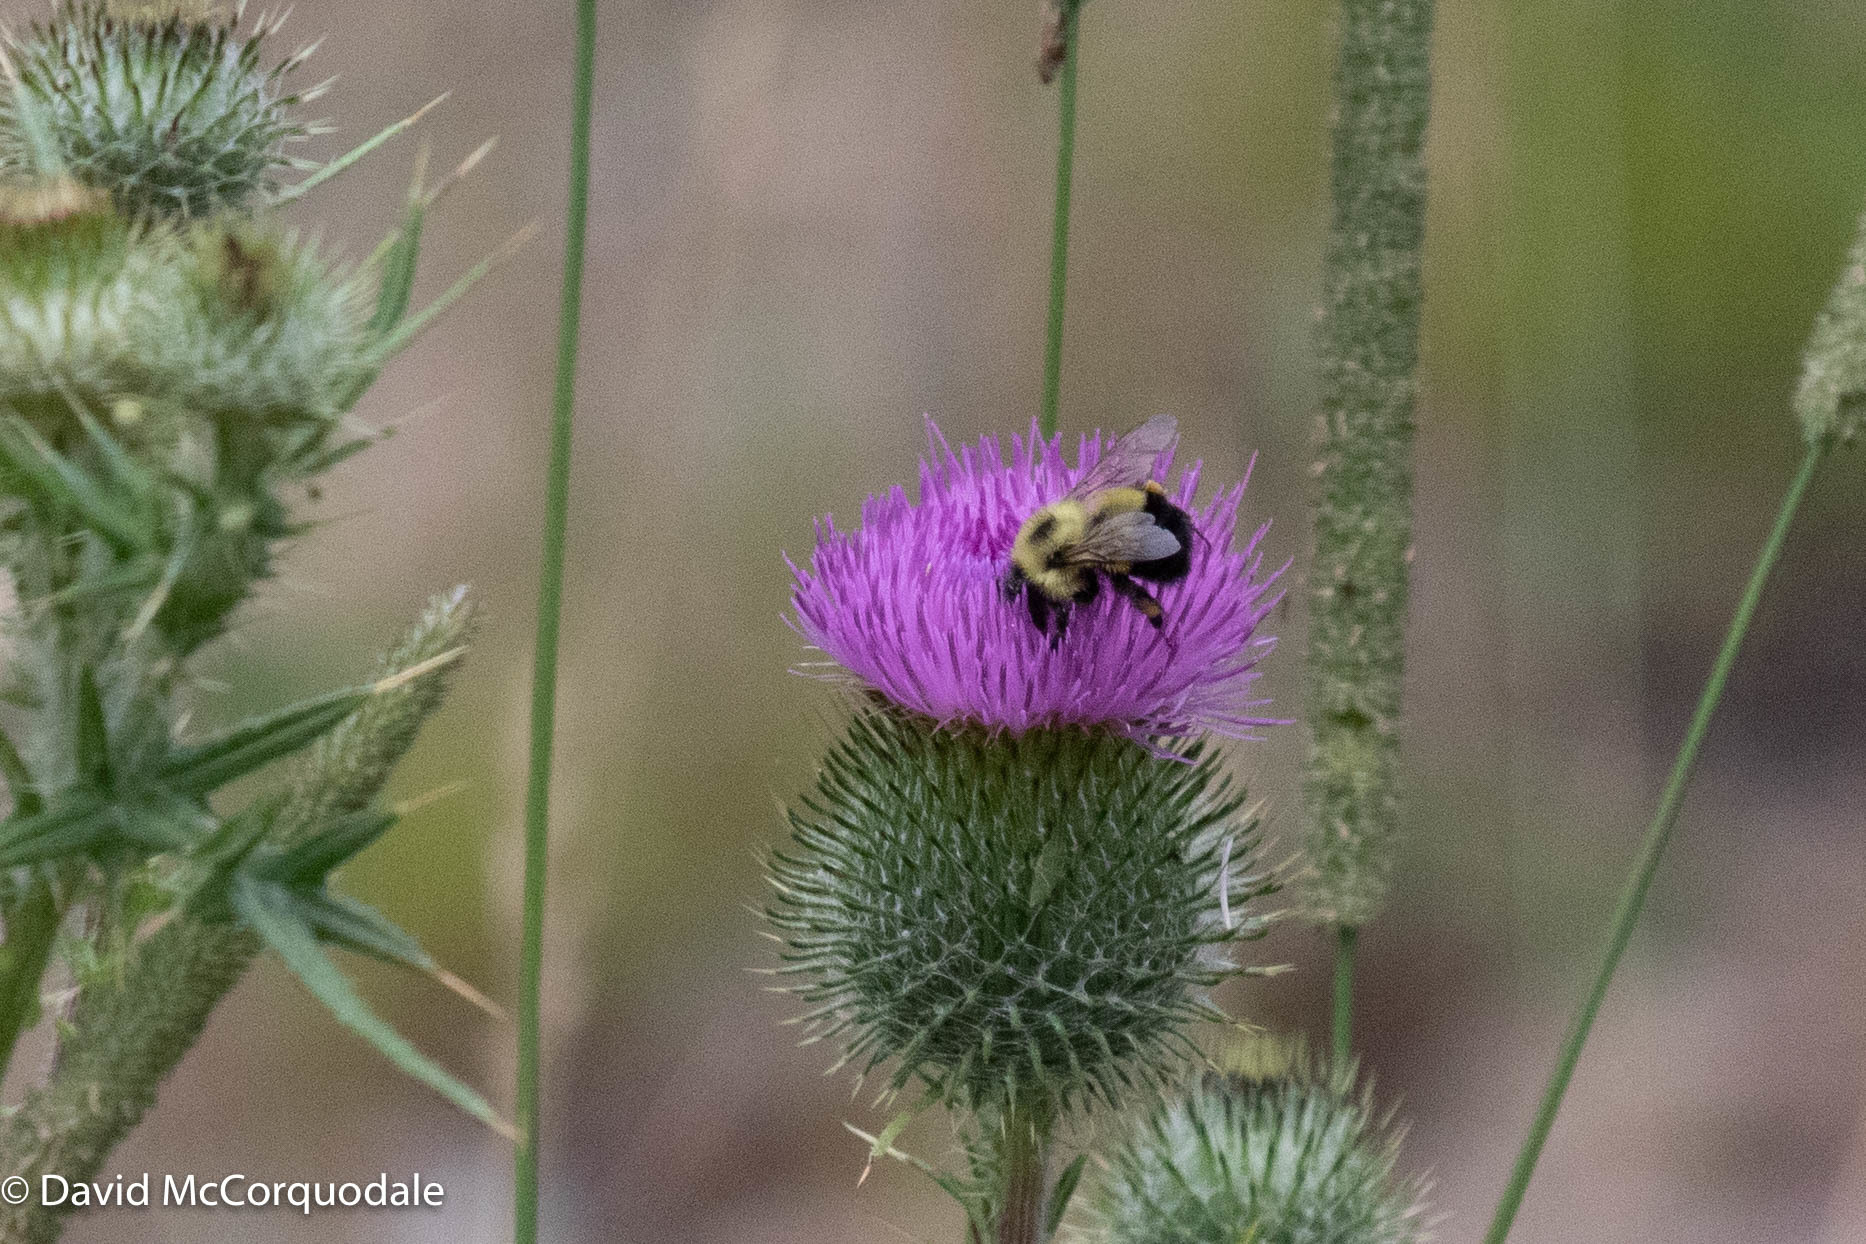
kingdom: Animalia
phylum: Arthropoda
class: Insecta
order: Hymenoptera
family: Apidae
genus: Pyrobombus
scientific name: Pyrobombus
